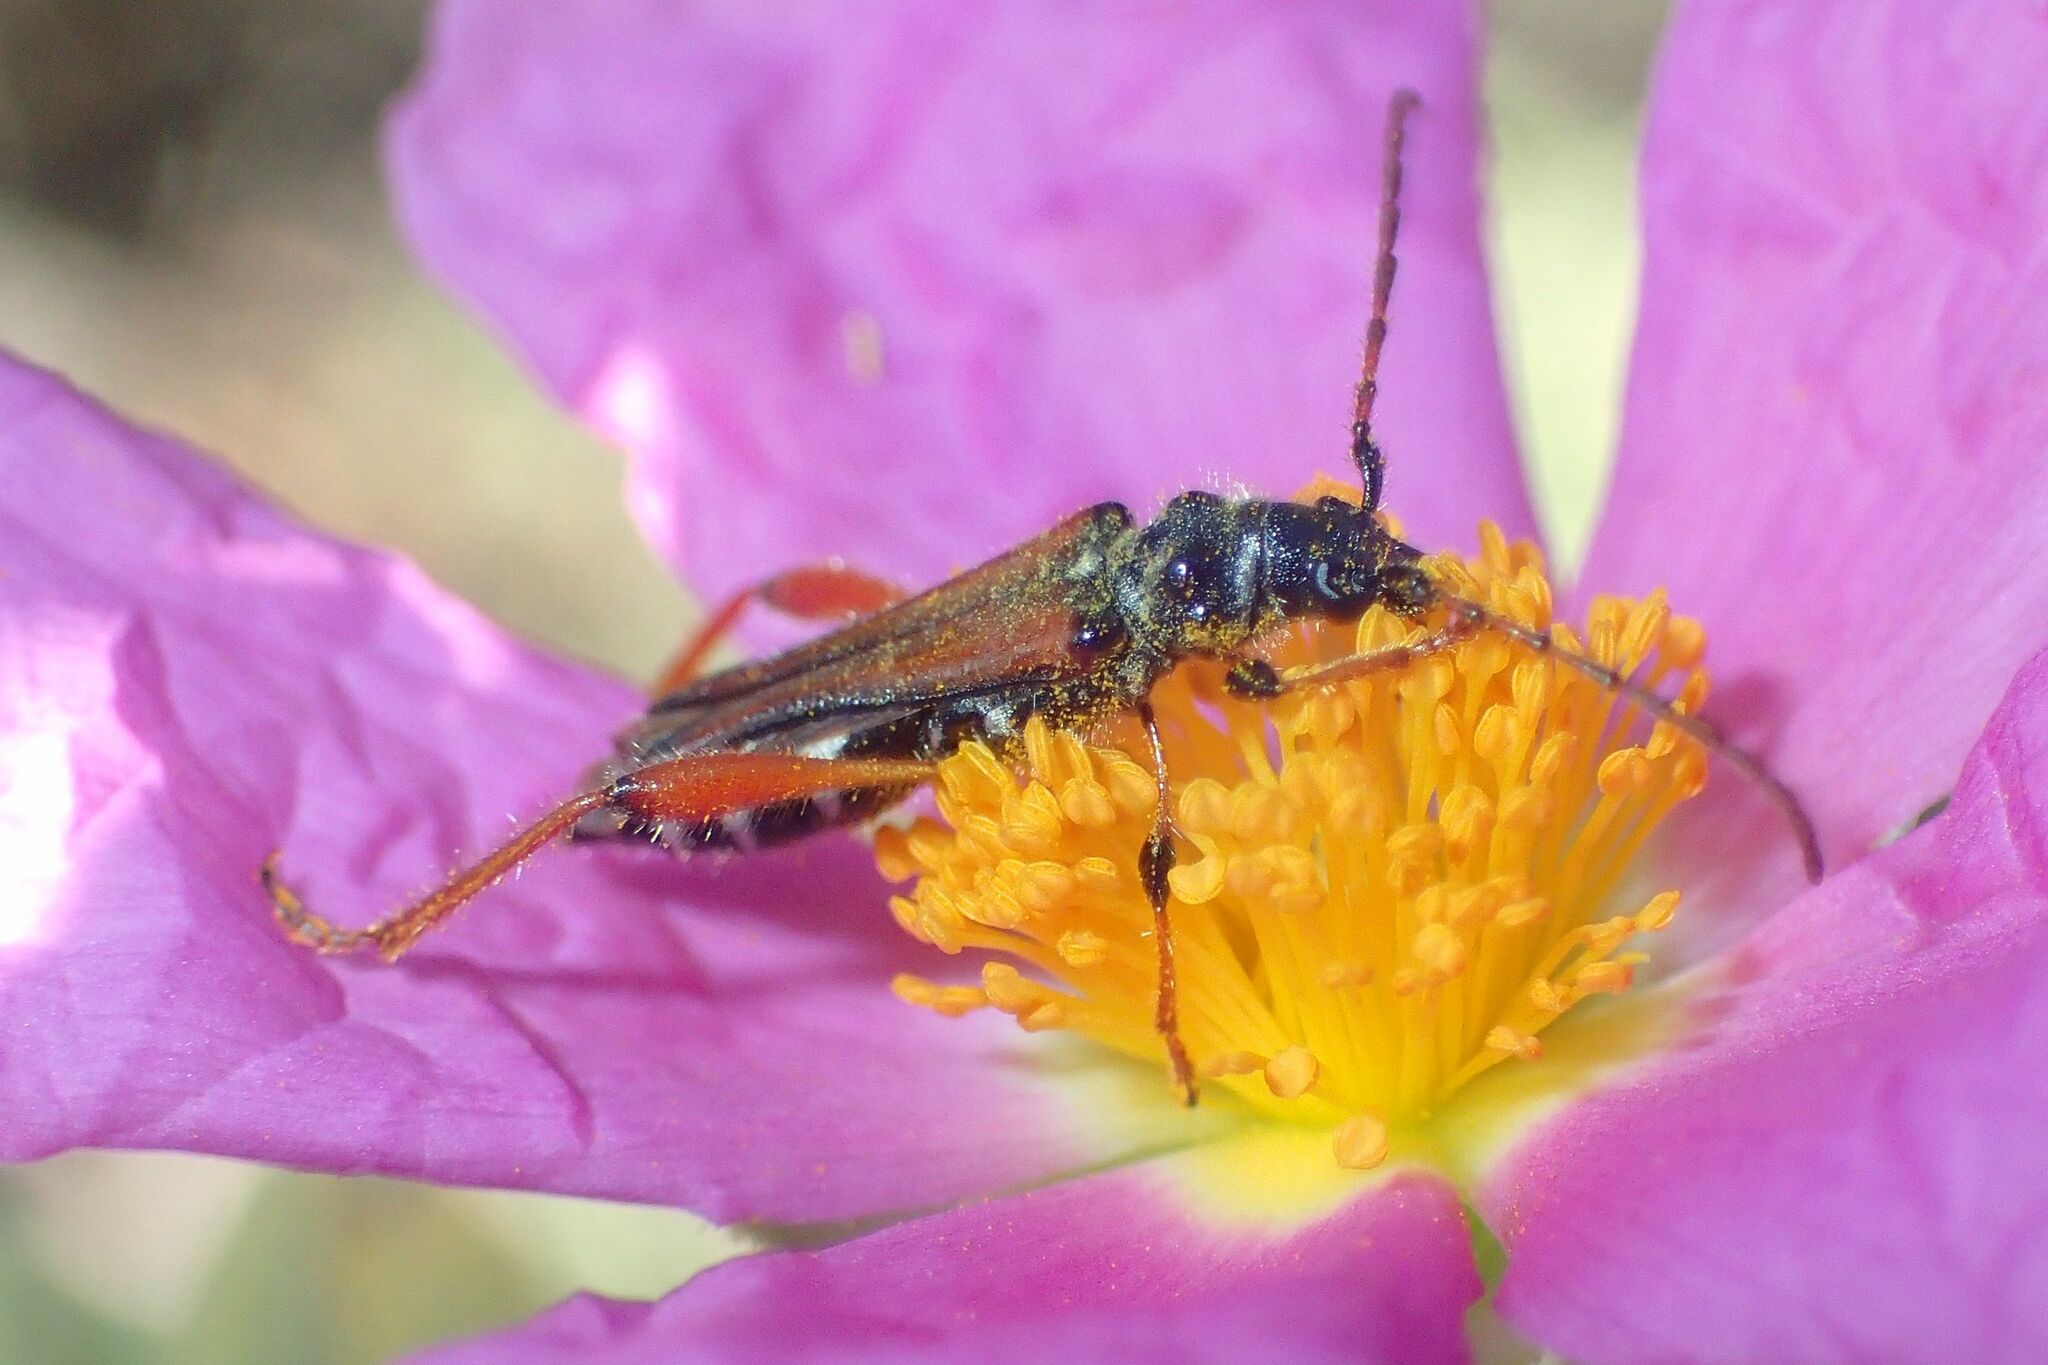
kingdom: Animalia
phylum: Arthropoda
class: Insecta
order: Coleoptera
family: Cerambycidae
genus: Stenopterus
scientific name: Stenopterus rufus
